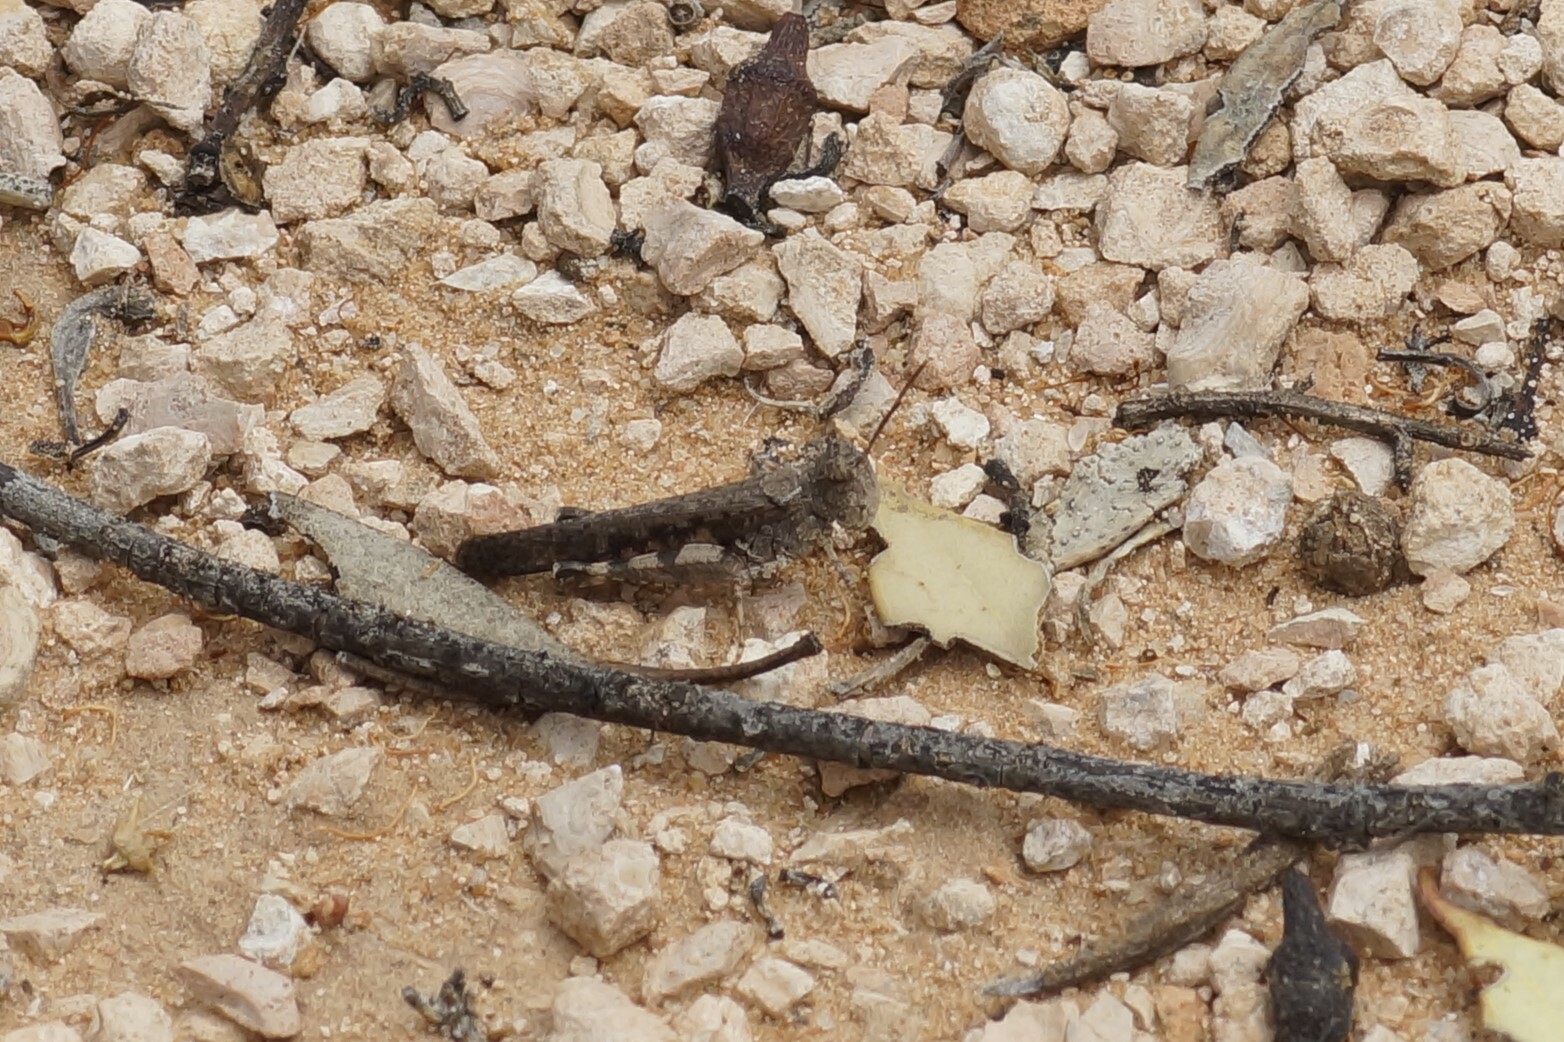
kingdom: Animalia
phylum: Arthropoda
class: Insecta
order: Orthoptera
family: Acrididae
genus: Pycnostictus
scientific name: Pycnostictus seriatus
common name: Common bandwing
